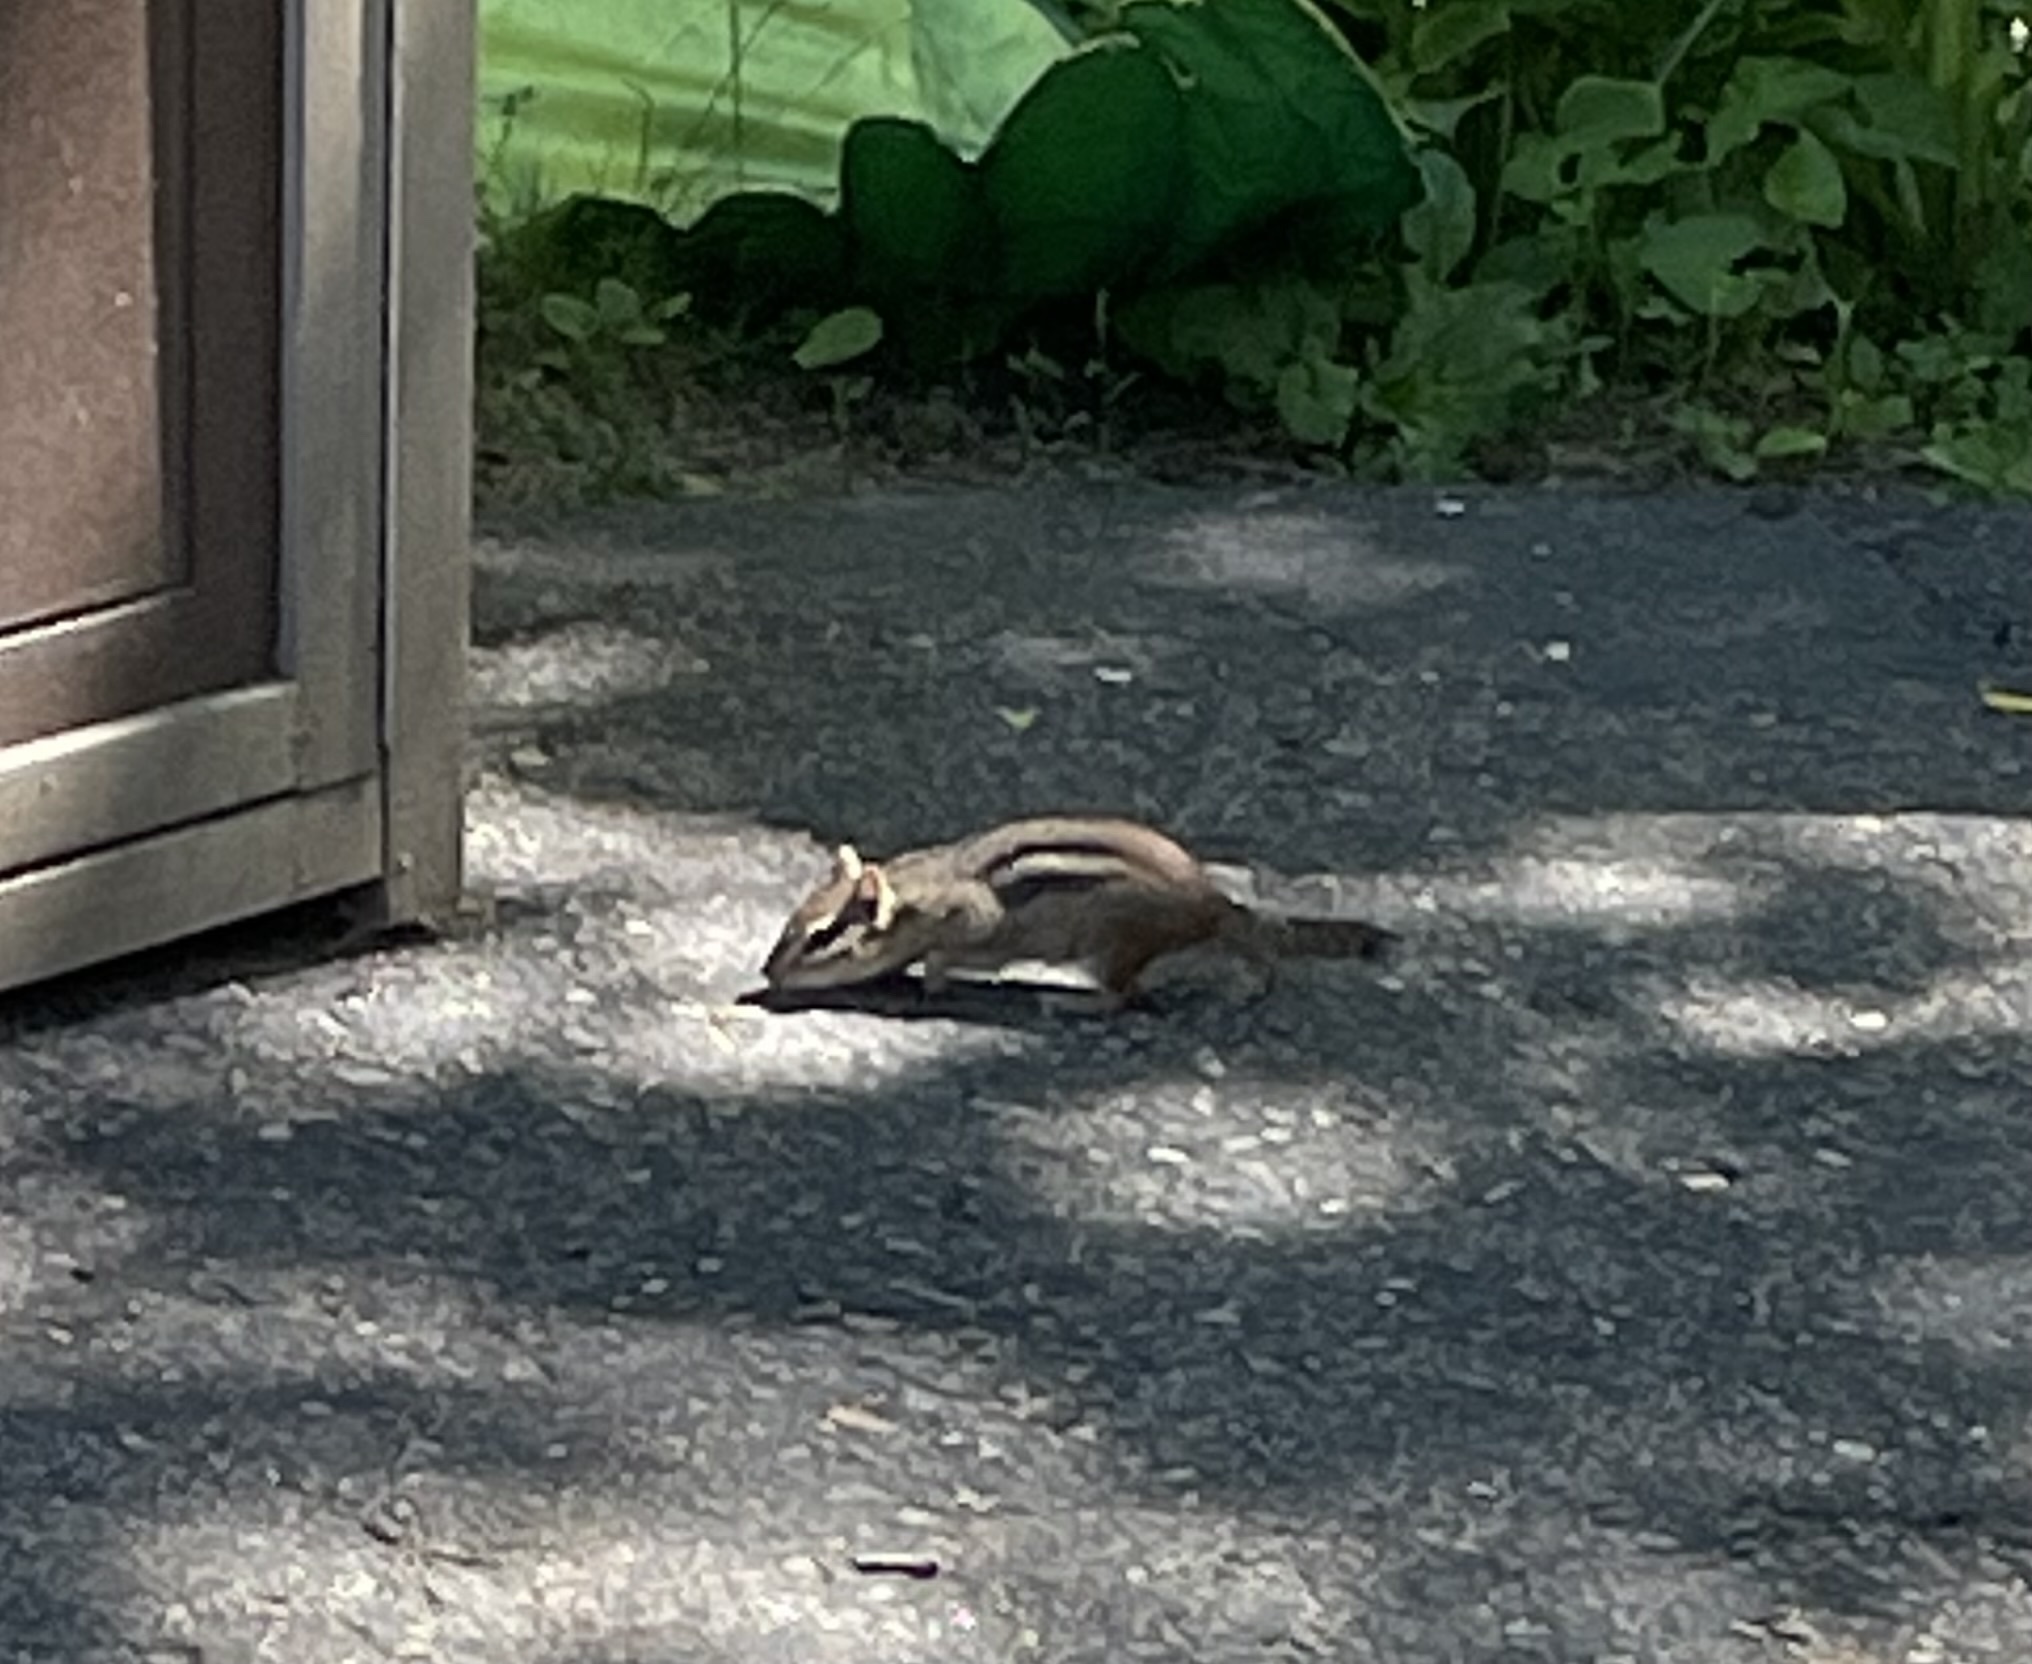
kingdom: Animalia
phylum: Chordata
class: Mammalia
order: Rodentia
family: Sciuridae
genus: Tamias
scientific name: Tamias striatus
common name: Eastern chipmunk
